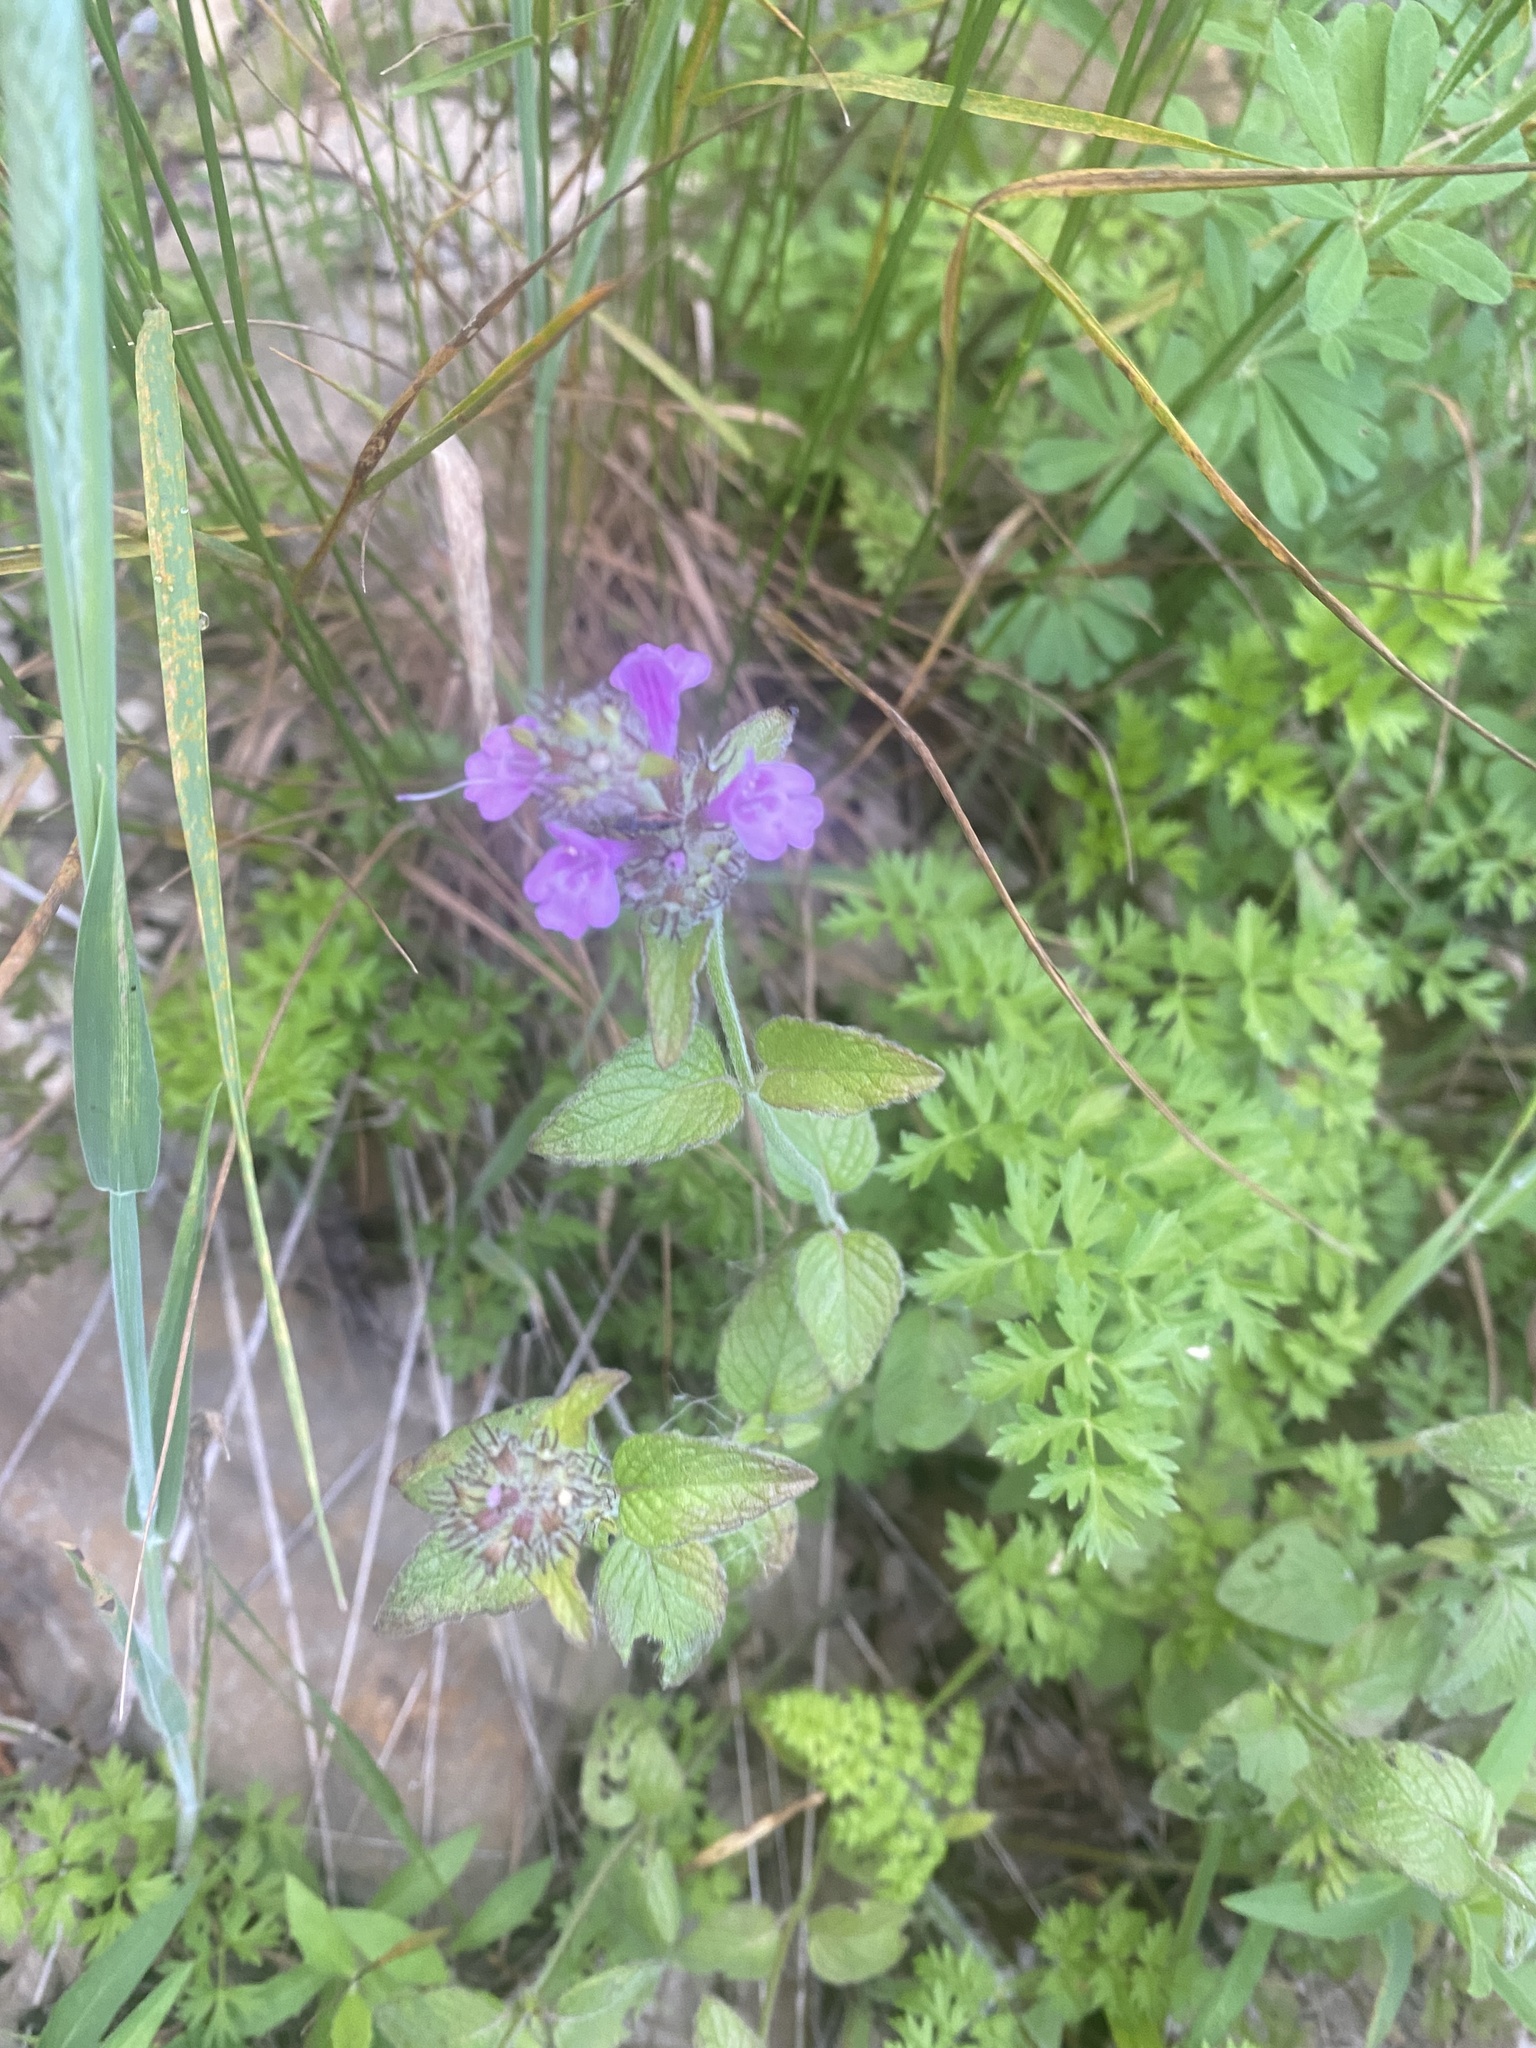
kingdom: Plantae
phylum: Tracheophyta
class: Magnoliopsida
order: Lamiales
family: Lamiaceae
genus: Clinopodium
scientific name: Clinopodium vulgare
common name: Wild basil
